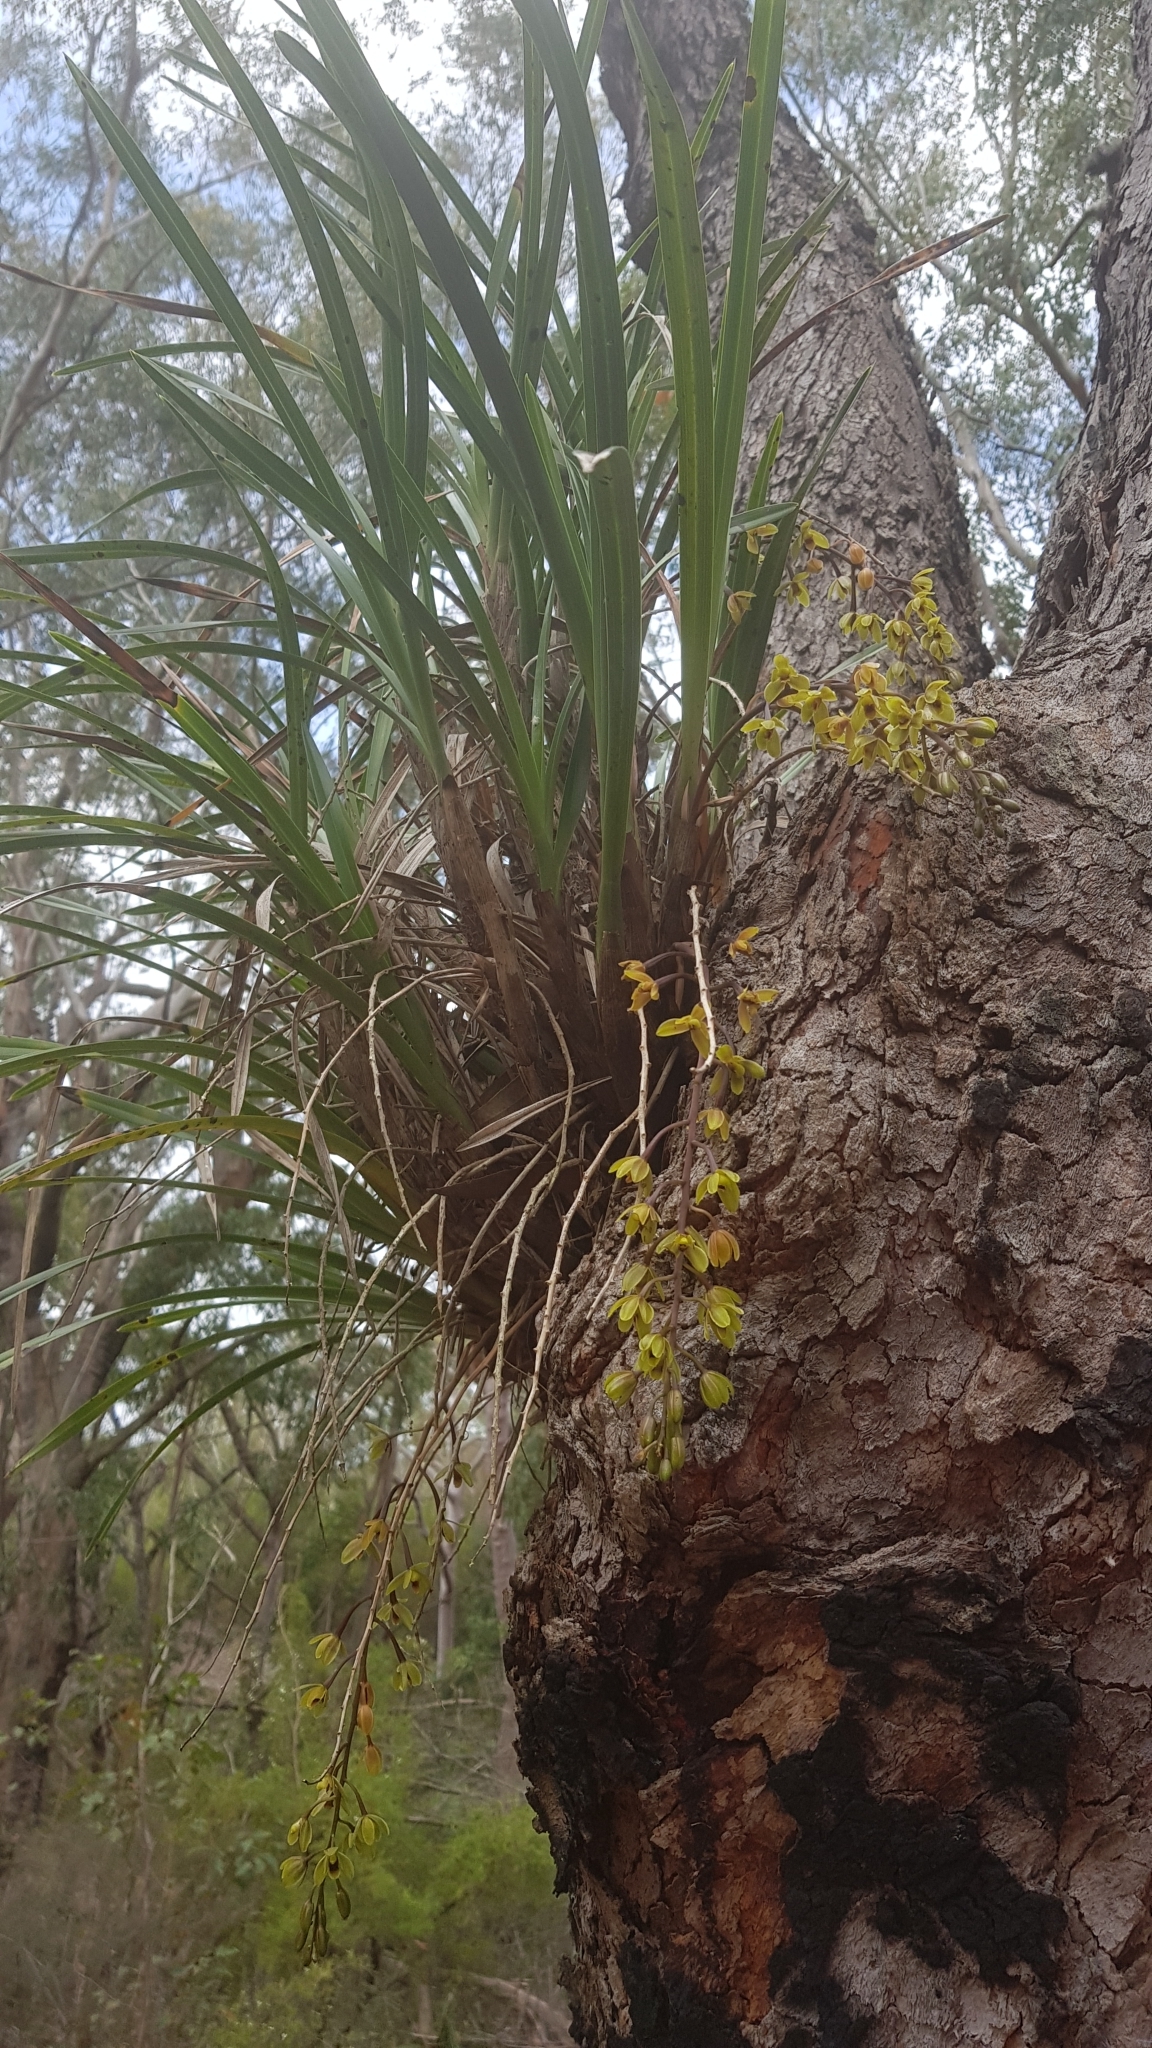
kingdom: Plantae
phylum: Tracheophyta
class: Liliopsida
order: Asparagales
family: Orchidaceae
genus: Cymbidium
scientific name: Cymbidium suave
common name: Snake orchid
